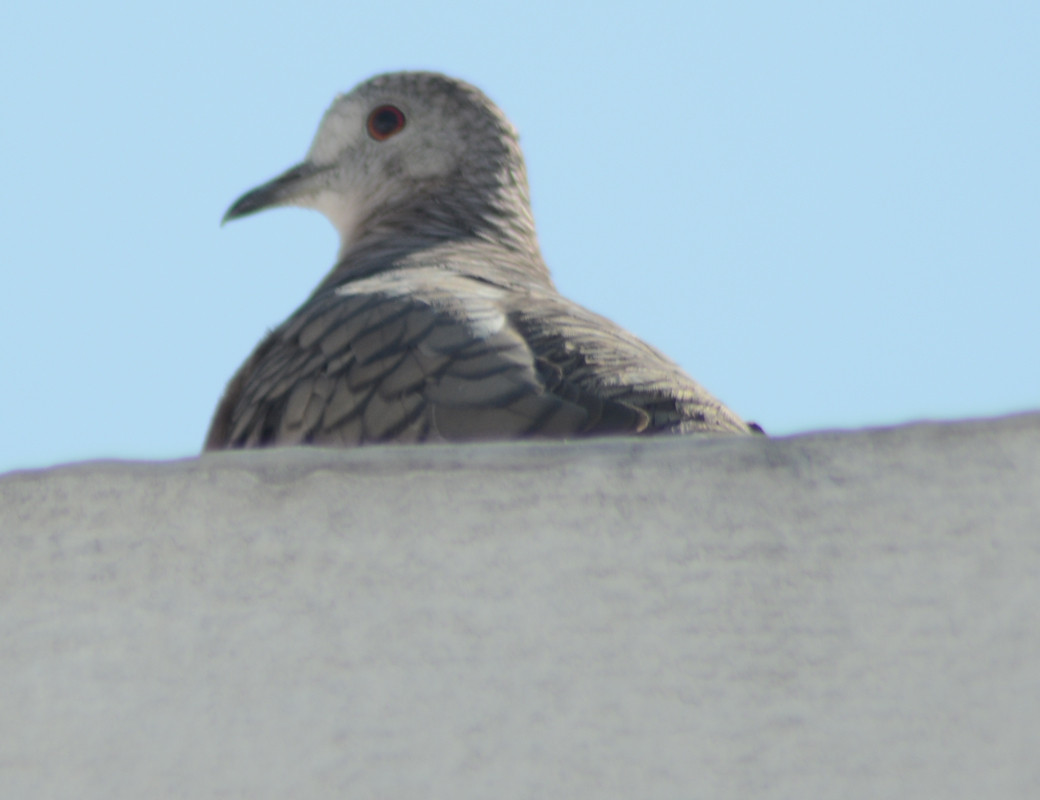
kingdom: Animalia
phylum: Chordata
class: Aves
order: Columbiformes
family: Columbidae
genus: Columbina
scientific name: Columbina inca
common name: Inca dove
